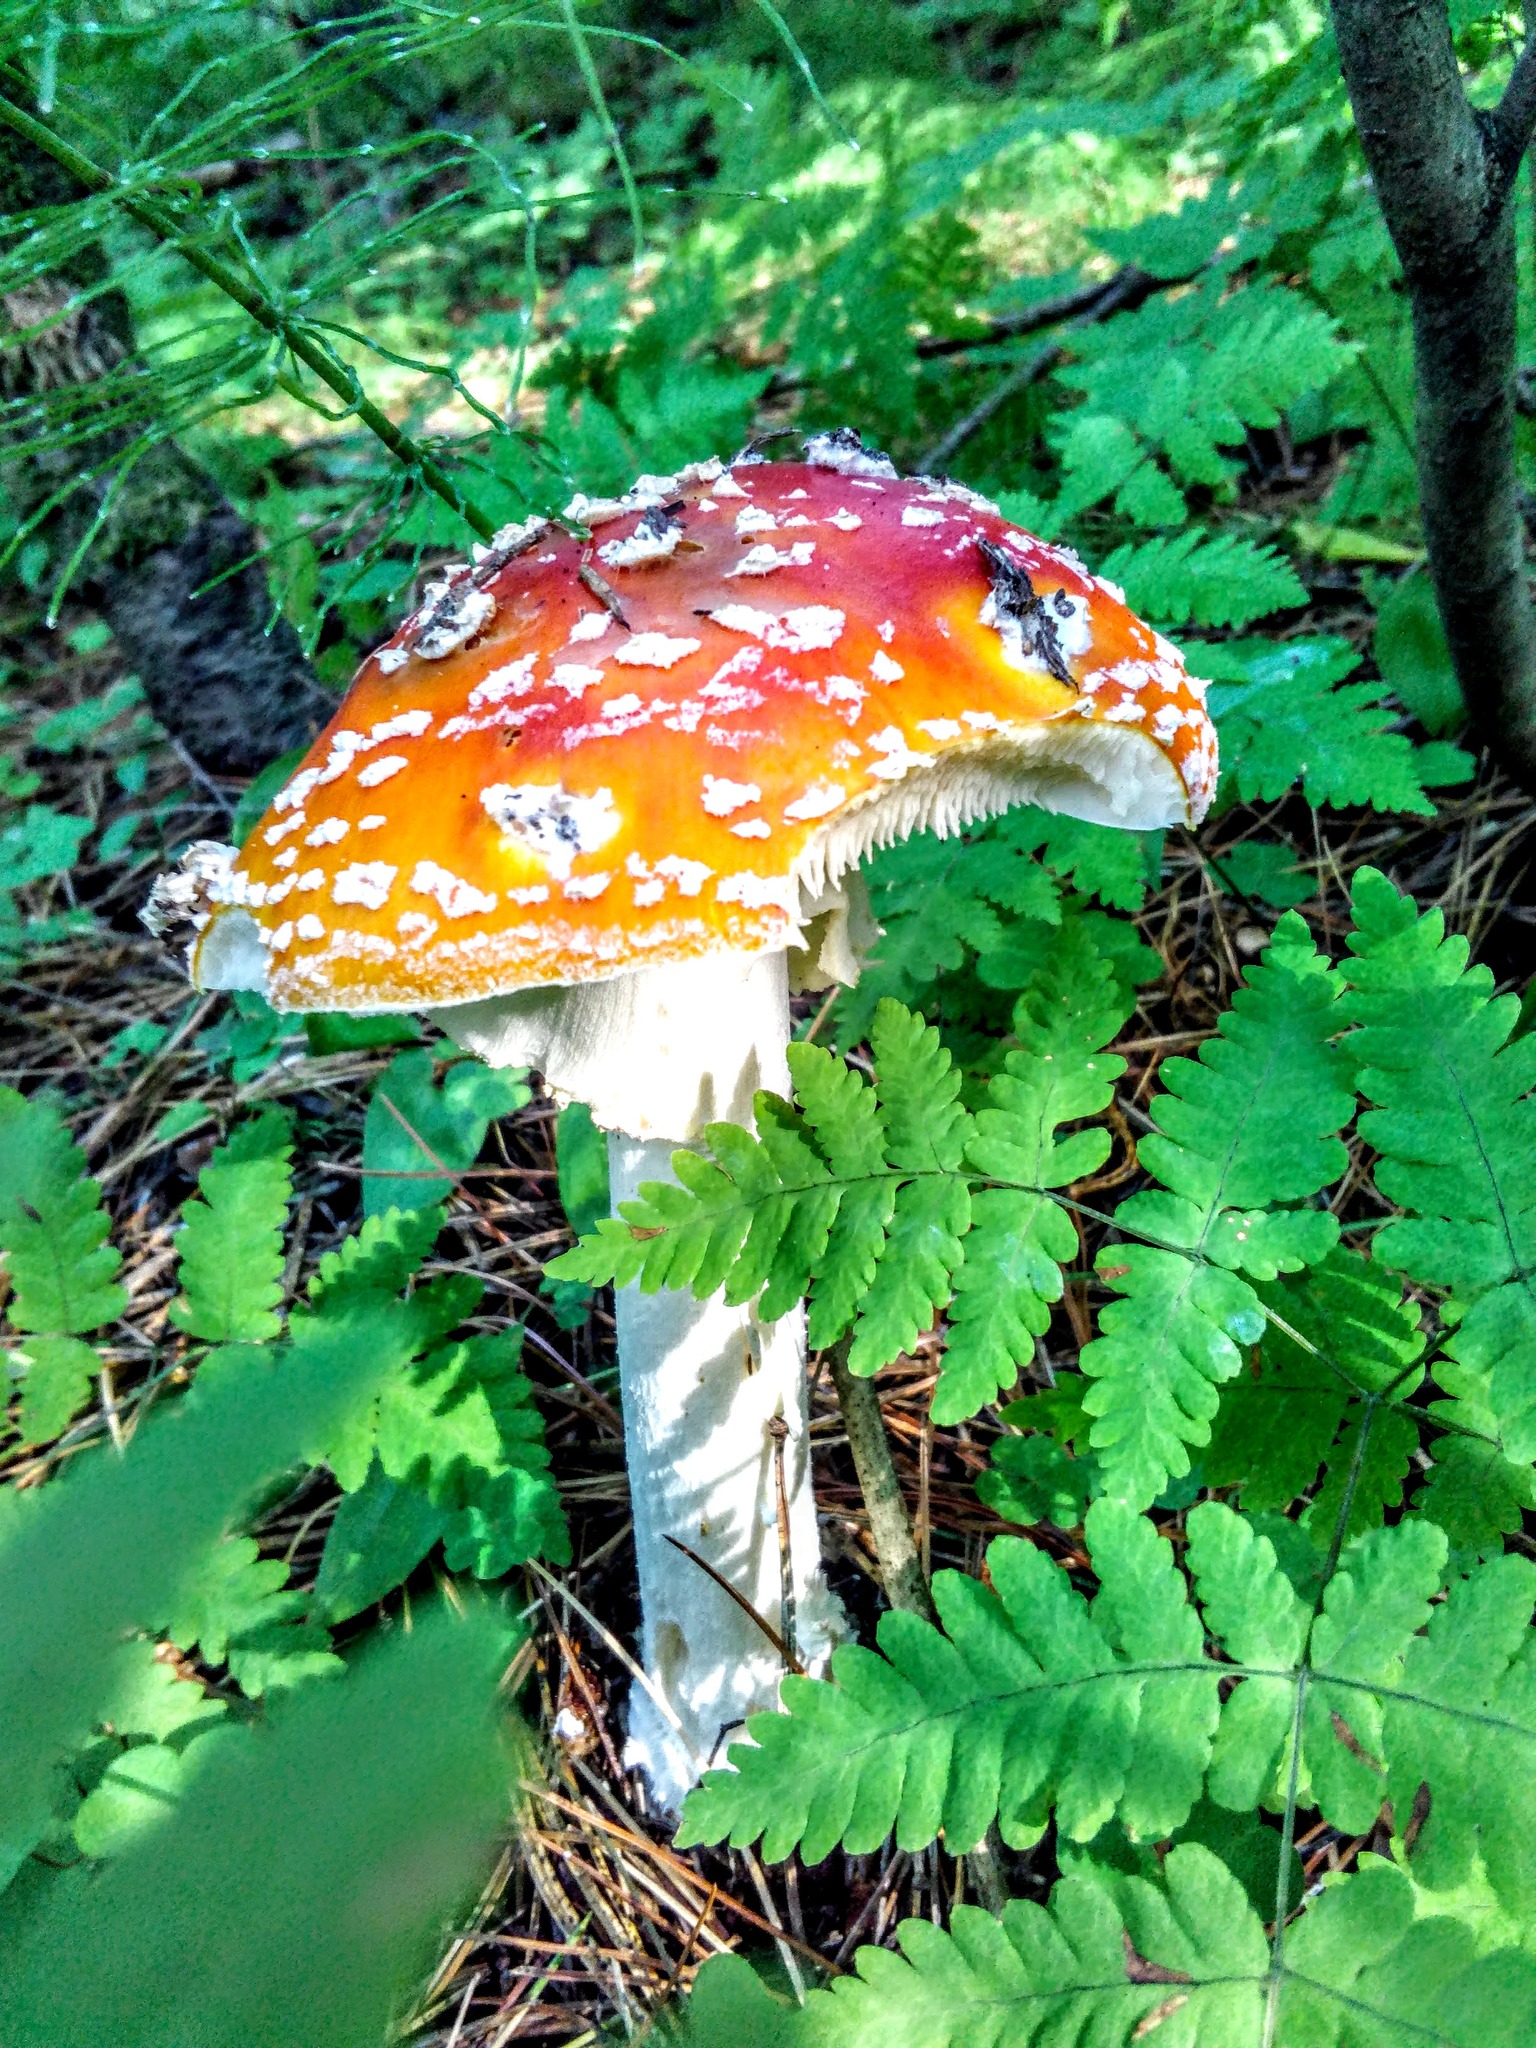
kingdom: Fungi
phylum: Basidiomycota
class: Agaricomycetes
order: Agaricales
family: Amanitaceae
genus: Amanita
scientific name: Amanita muscaria
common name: Fly agaric
